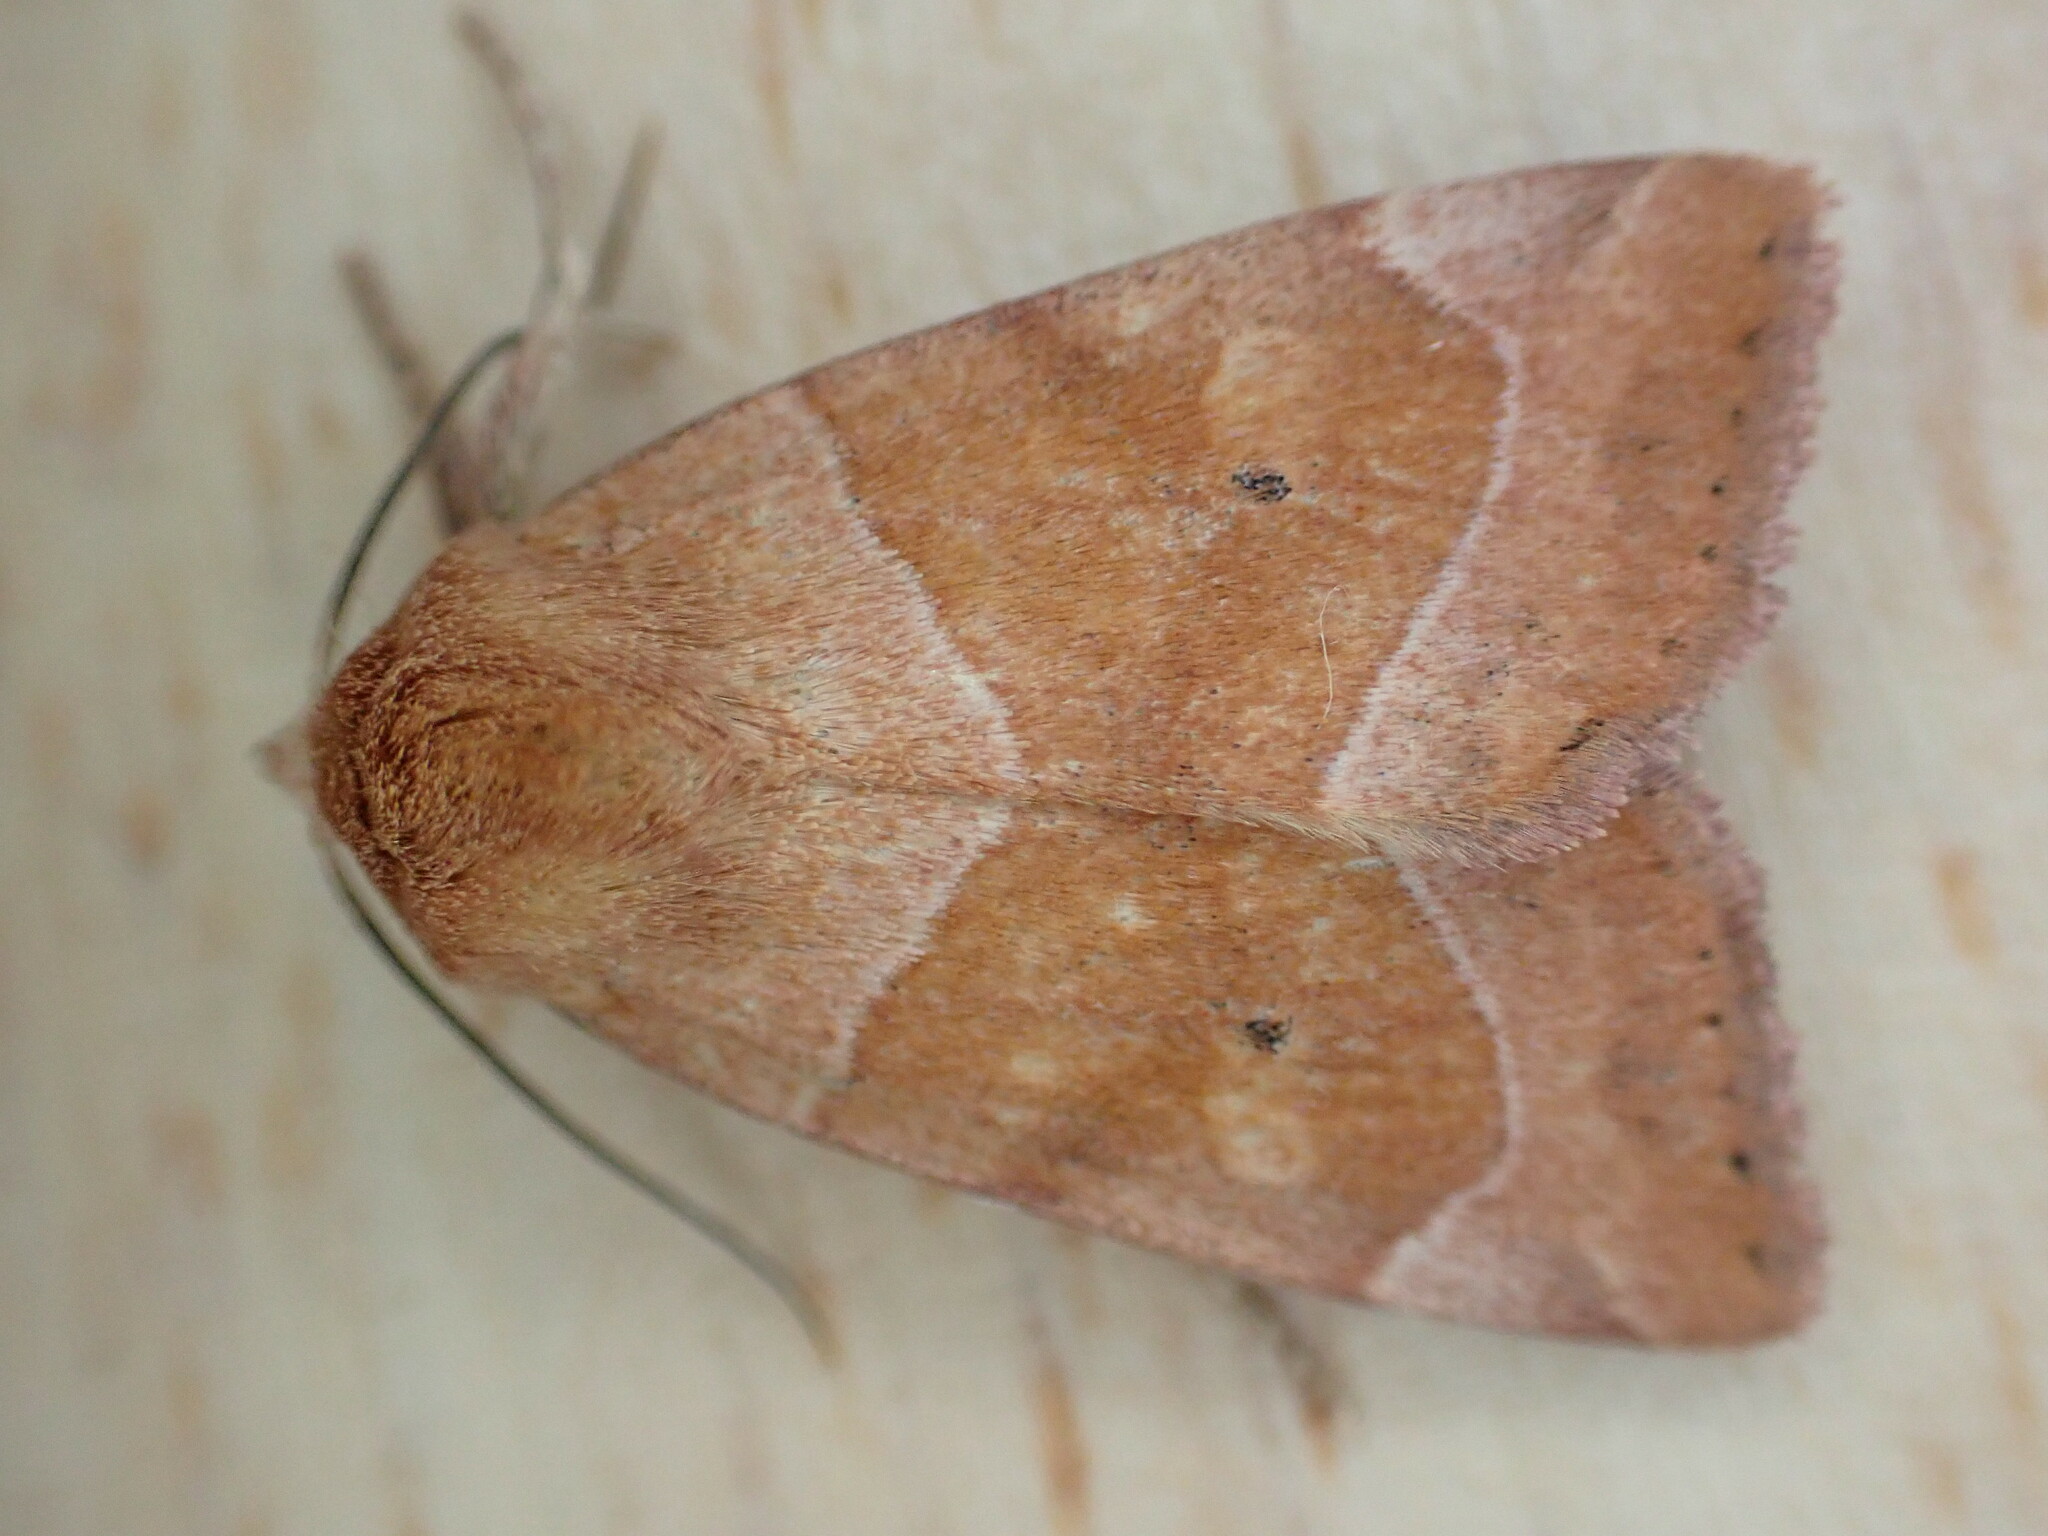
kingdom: Animalia
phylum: Arthropoda
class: Insecta
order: Lepidoptera
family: Noctuidae
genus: Cosmia
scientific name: Cosmia trapezina
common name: Dun-bar
